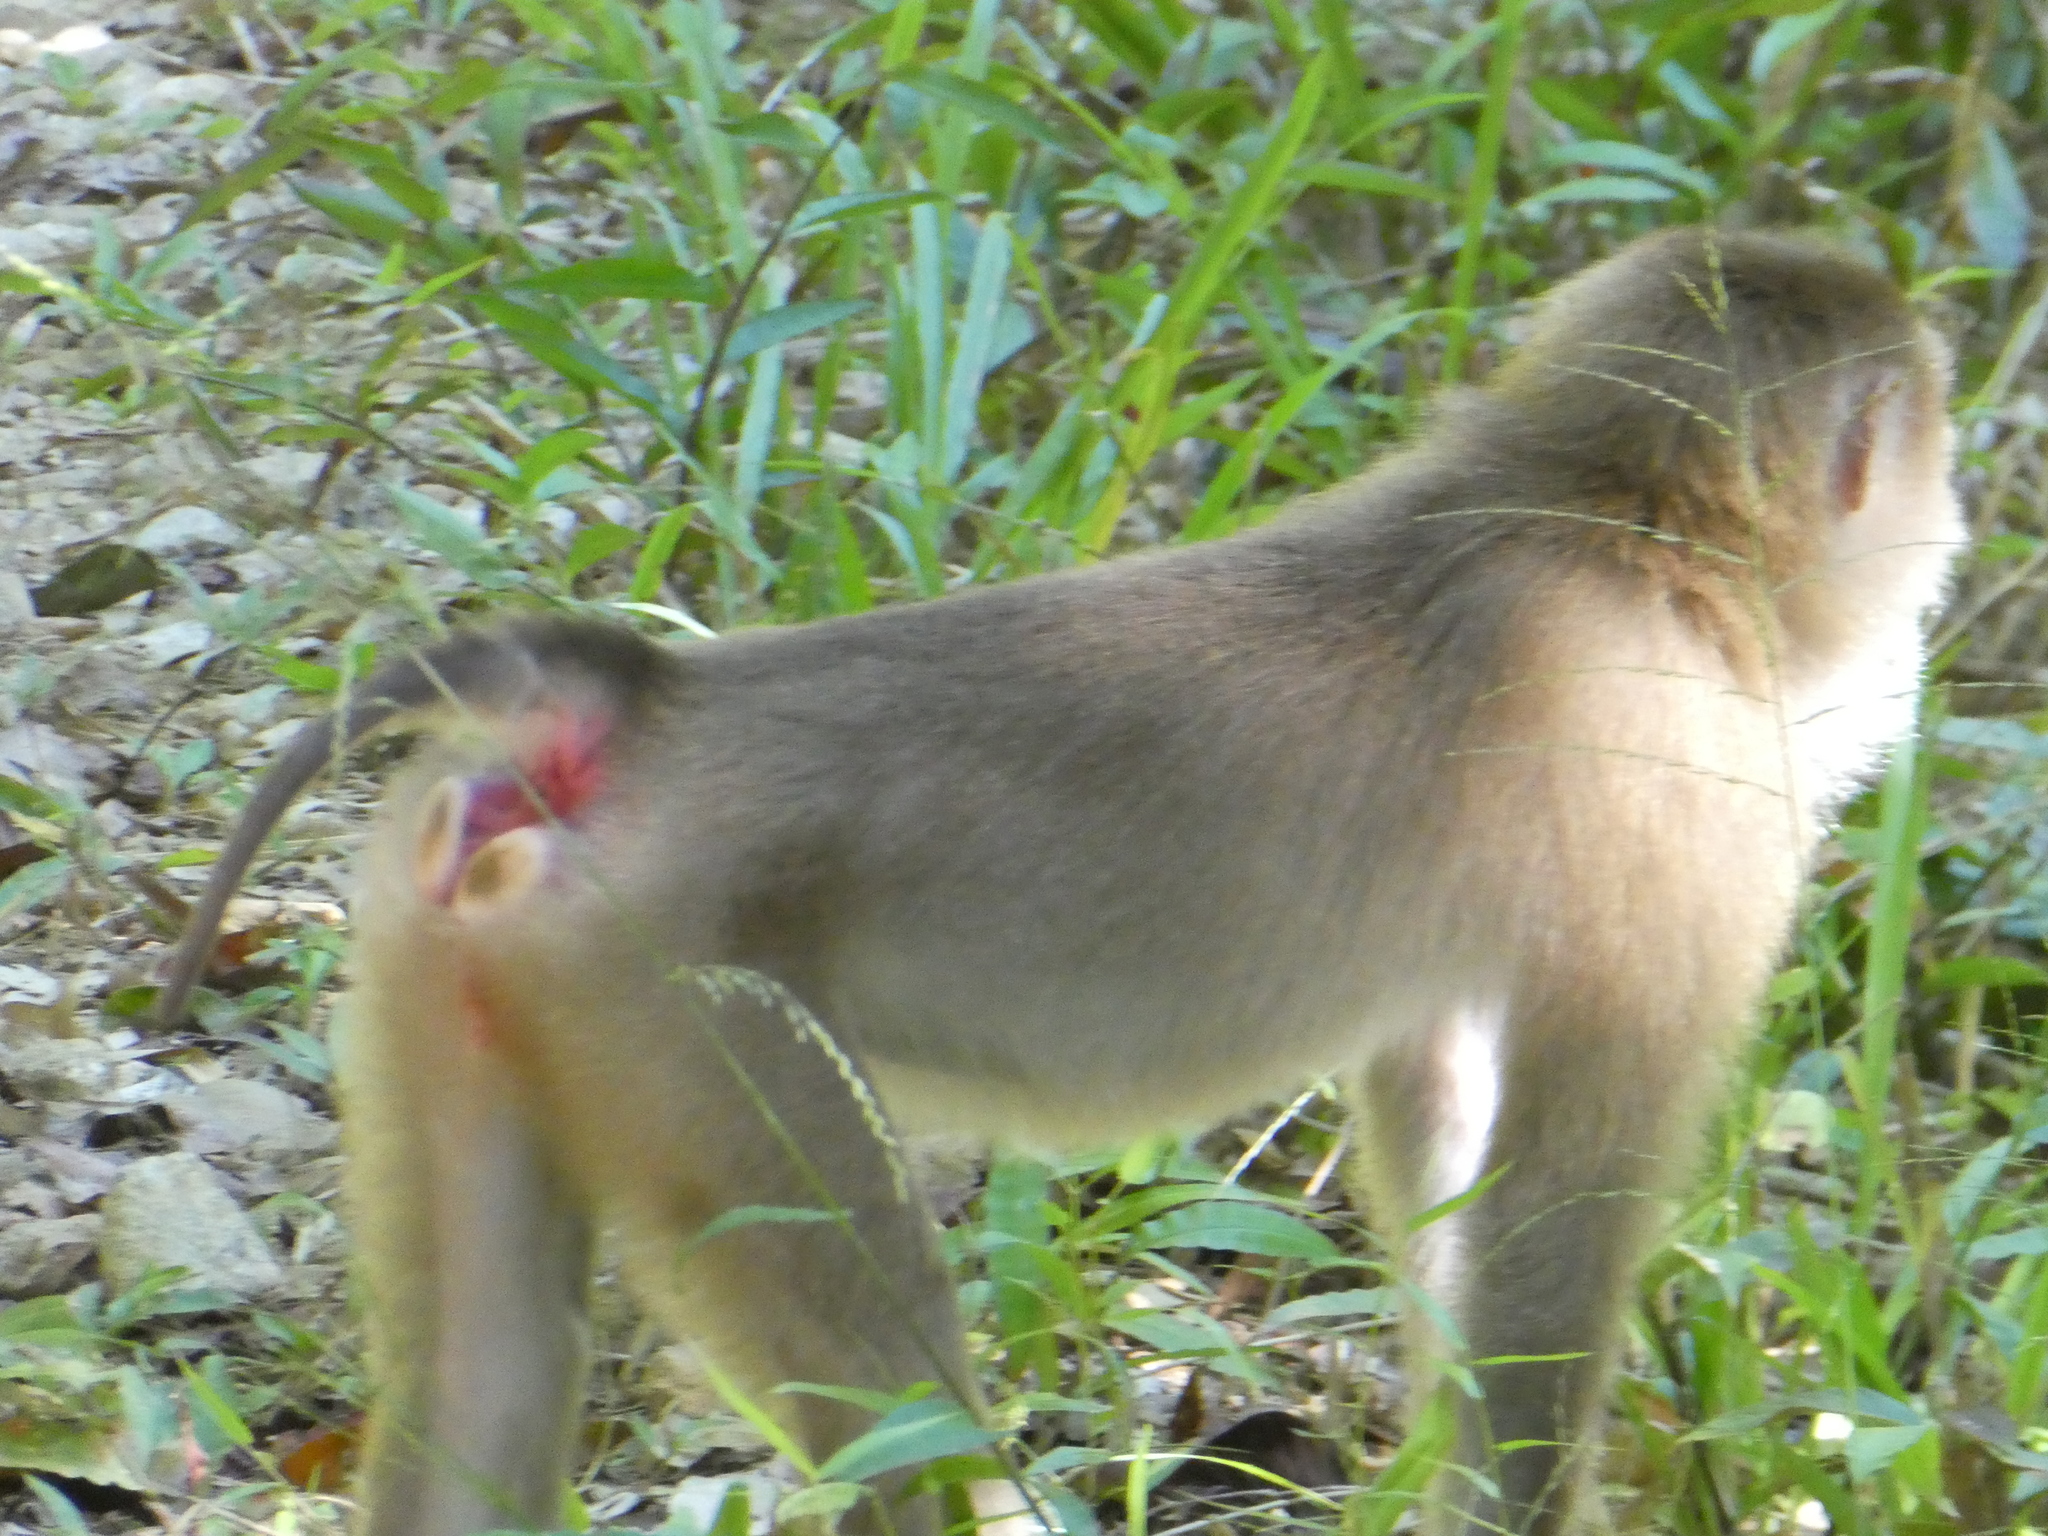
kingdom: Animalia
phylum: Chordata
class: Mammalia
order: Primates
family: Cercopithecidae
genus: Macaca
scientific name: Macaca nemestrina
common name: Southern pig-tailed macaque
